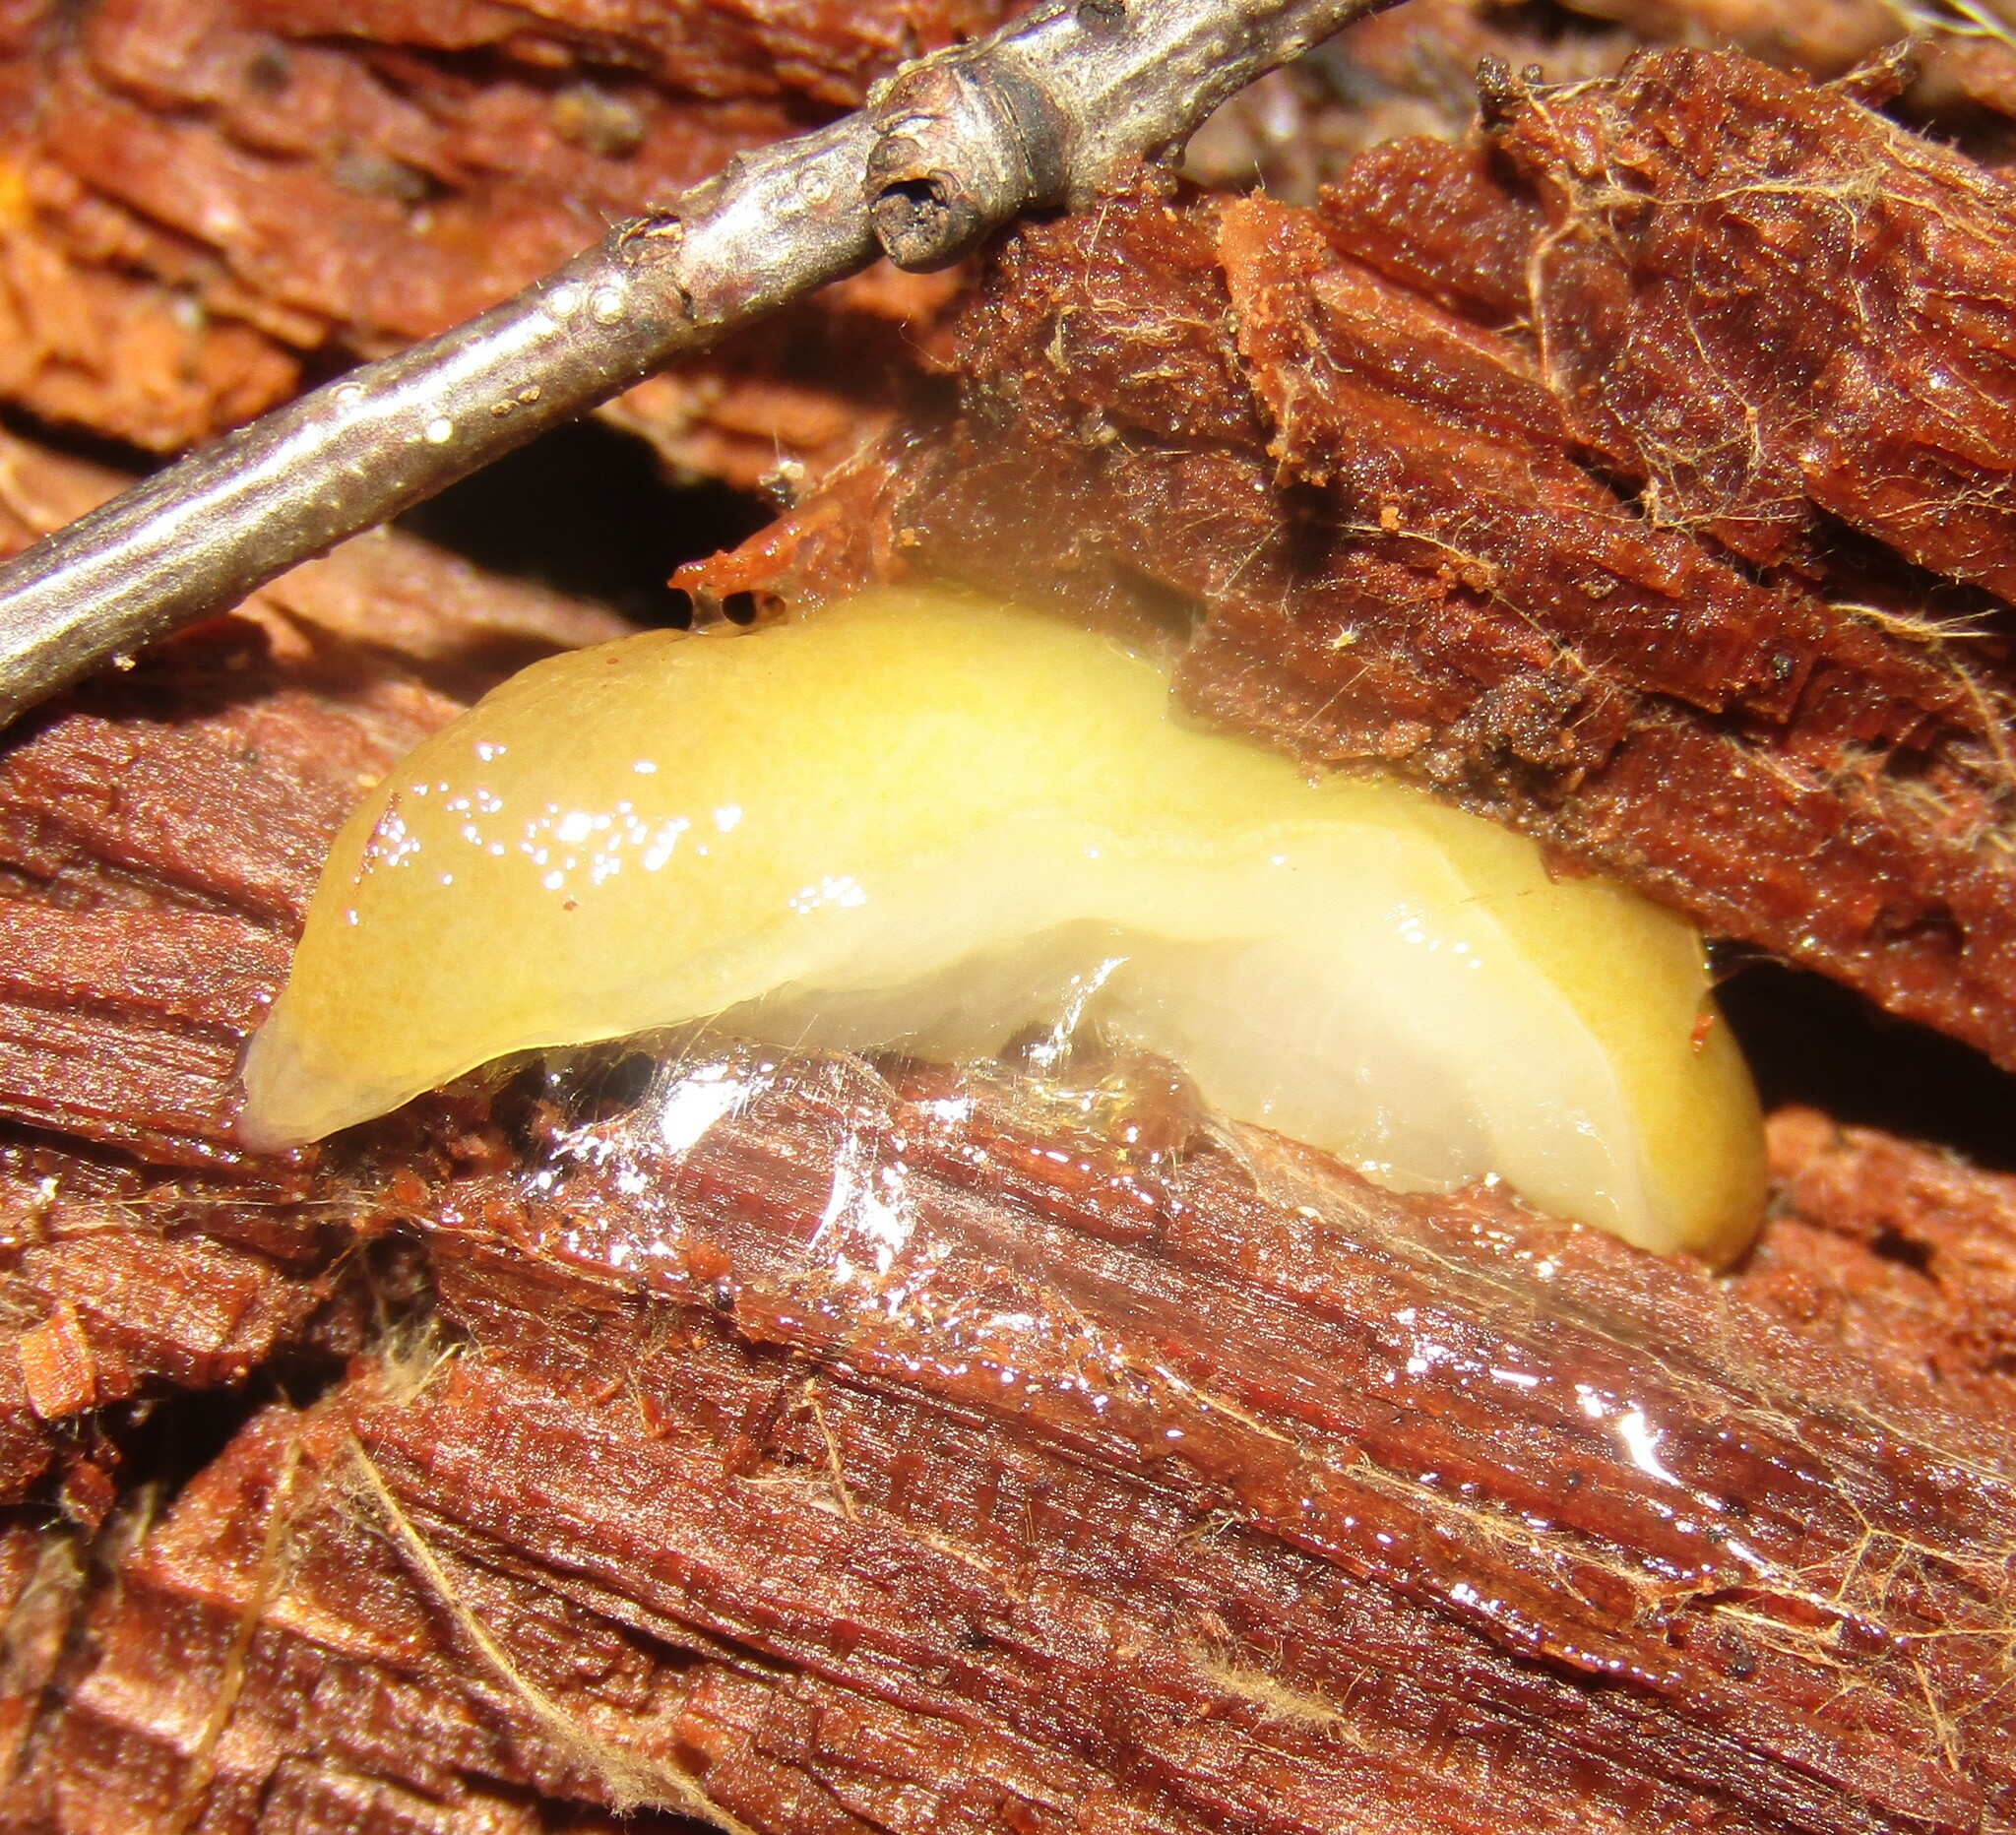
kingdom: Animalia
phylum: Mollusca
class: Gastropoda
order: Stylommatophora
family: Limacidae
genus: Malacolimax
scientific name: Malacolimax tenellus
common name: Lemon slug
